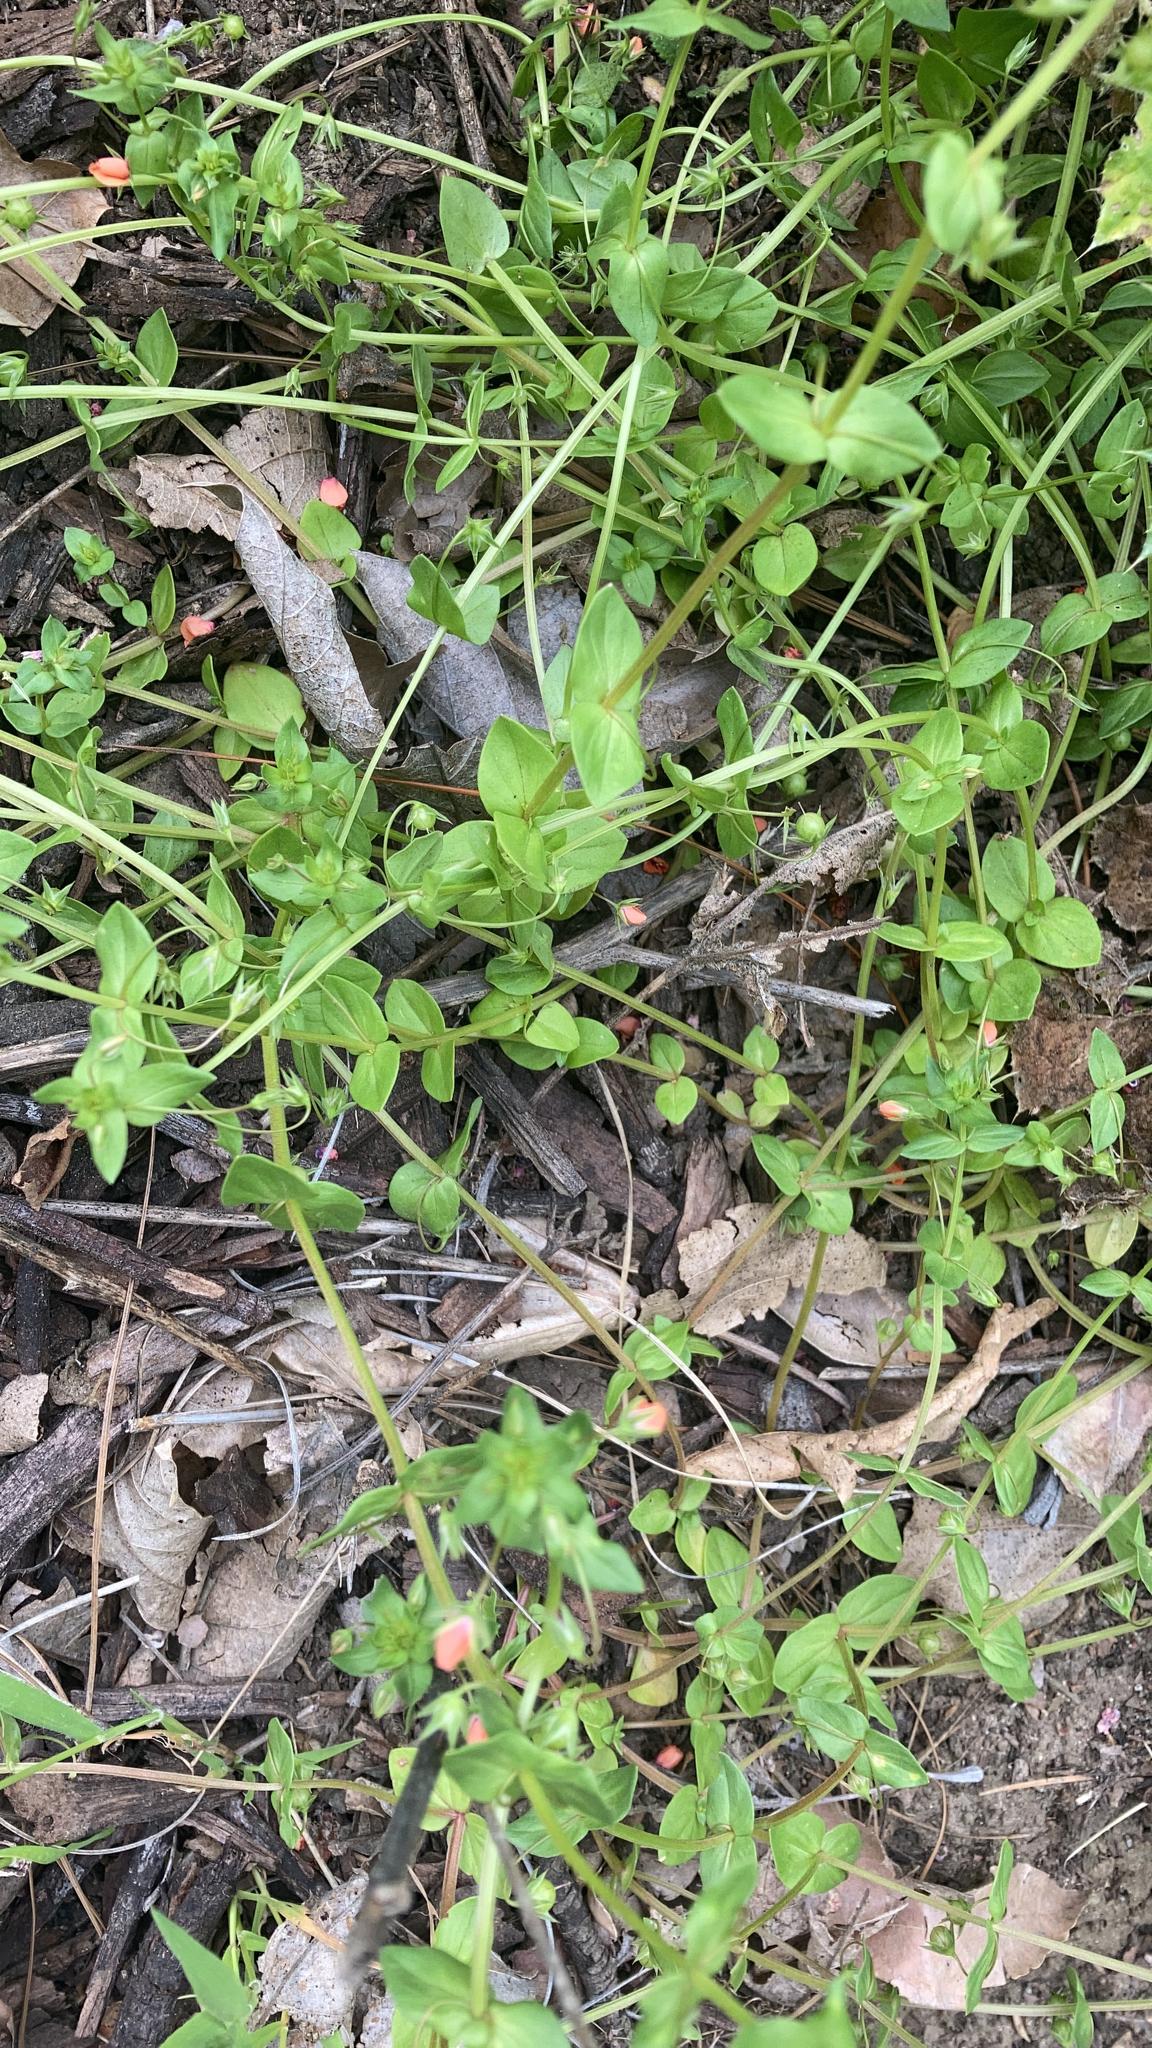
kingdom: Plantae
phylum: Tracheophyta
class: Magnoliopsida
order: Ericales
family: Primulaceae
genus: Lysimachia
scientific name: Lysimachia arvensis
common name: Scarlet pimpernel
